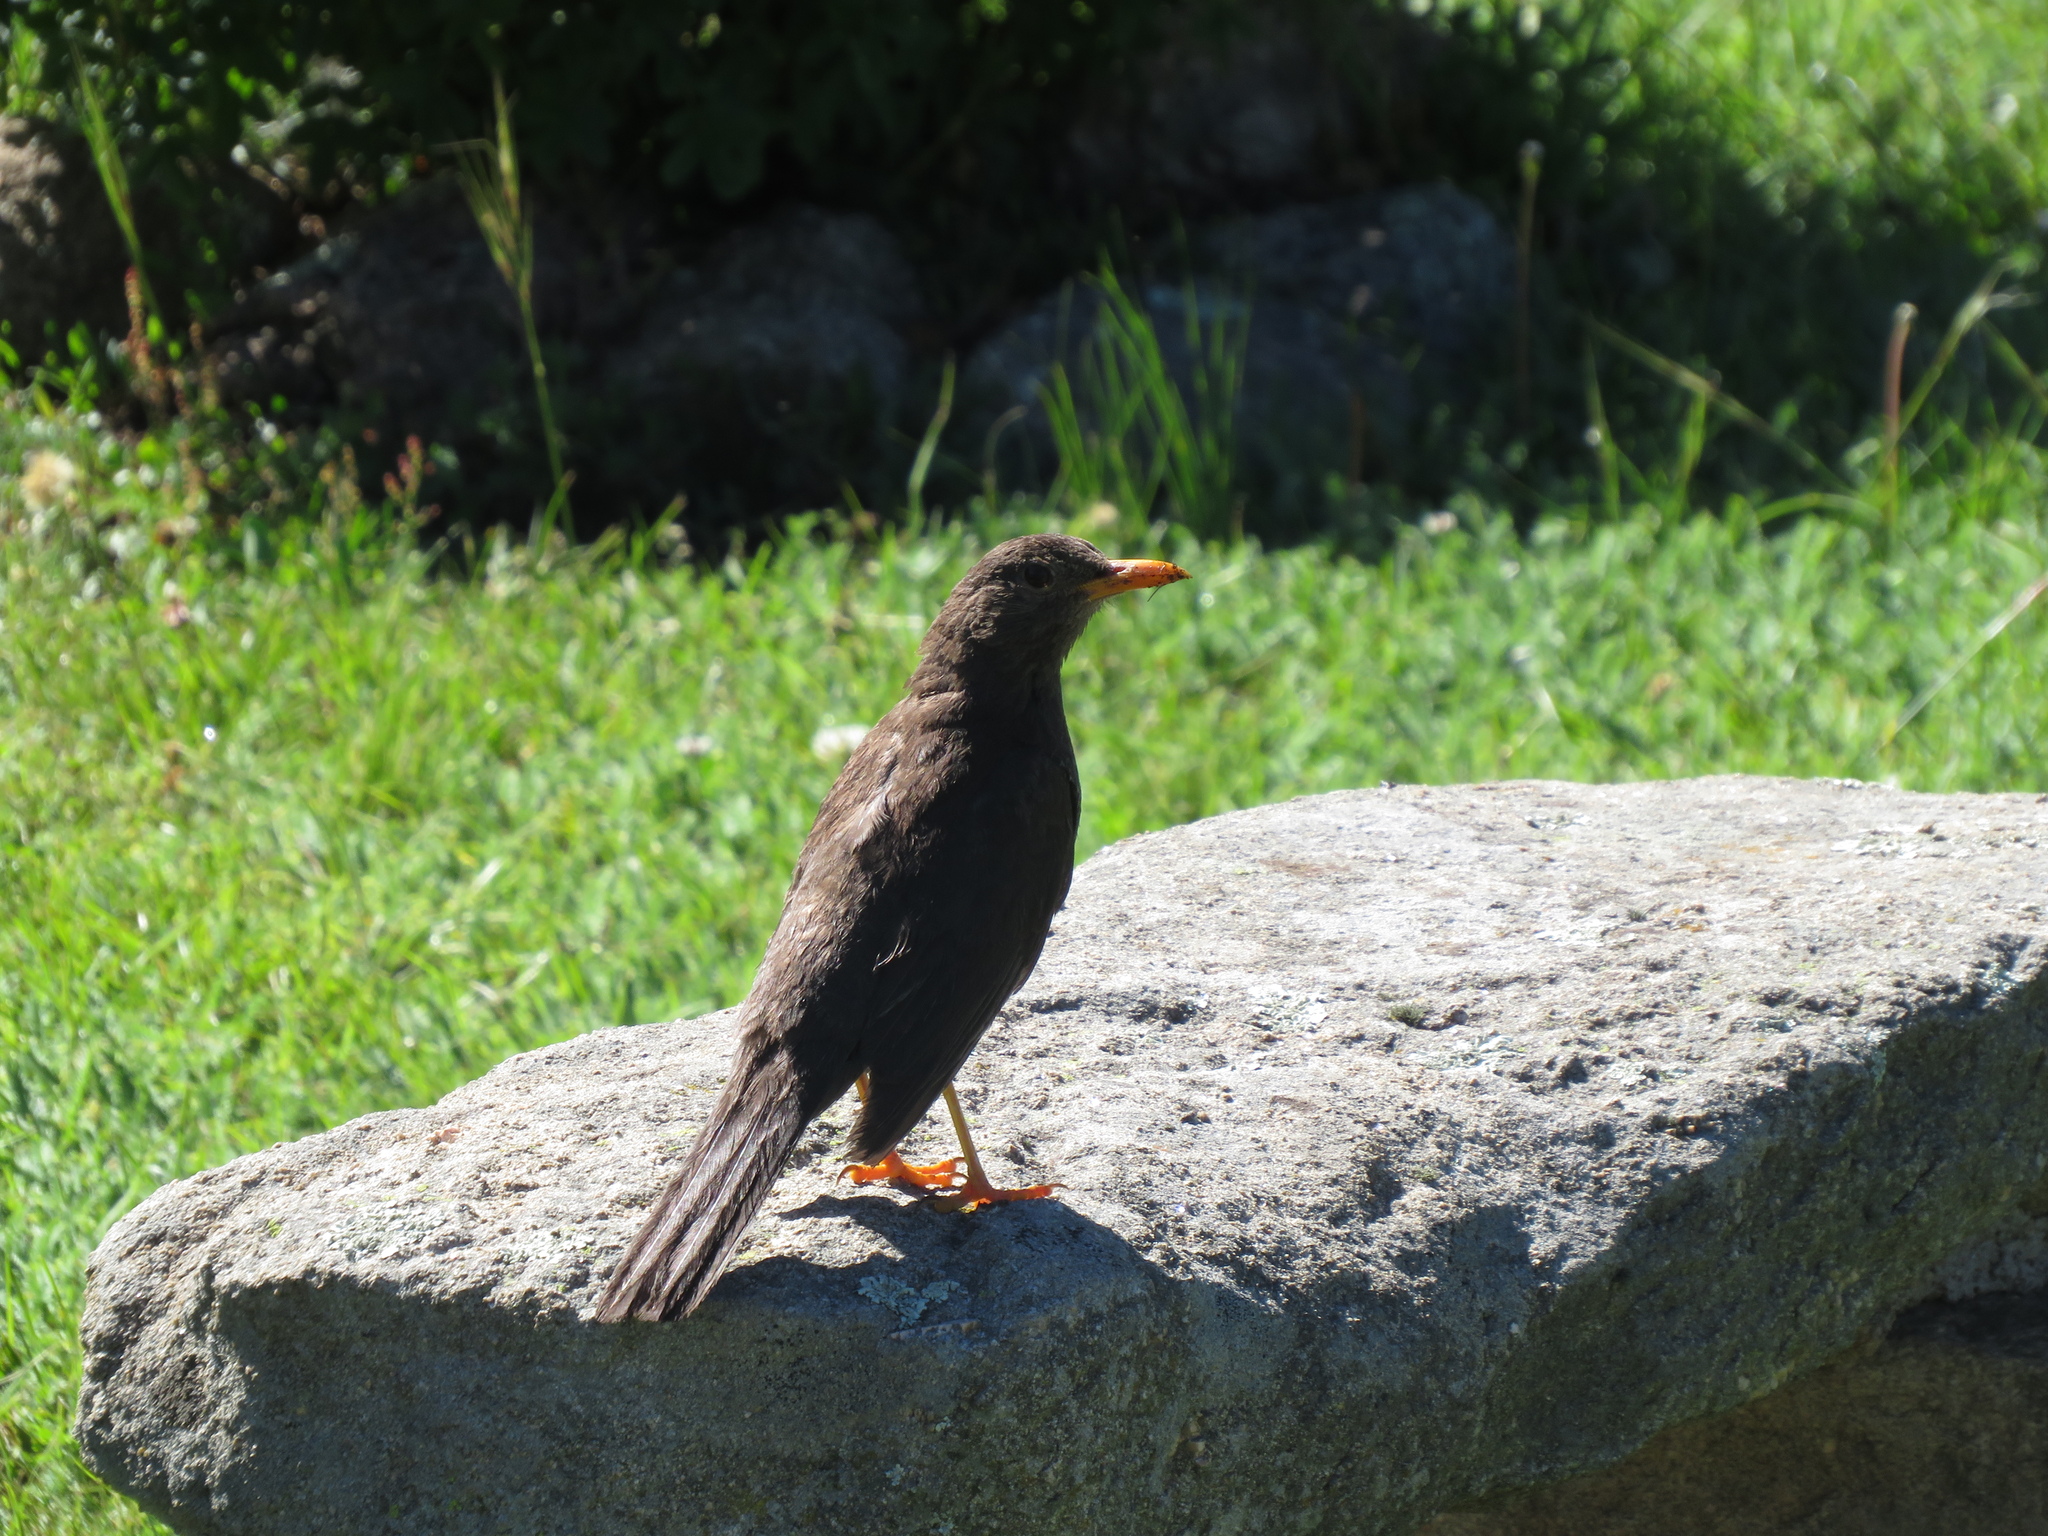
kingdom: Animalia
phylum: Chordata
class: Aves
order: Passeriformes
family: Turdidae
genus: Turdus
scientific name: Turdus chiguanco
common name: Chiguanco thrush
